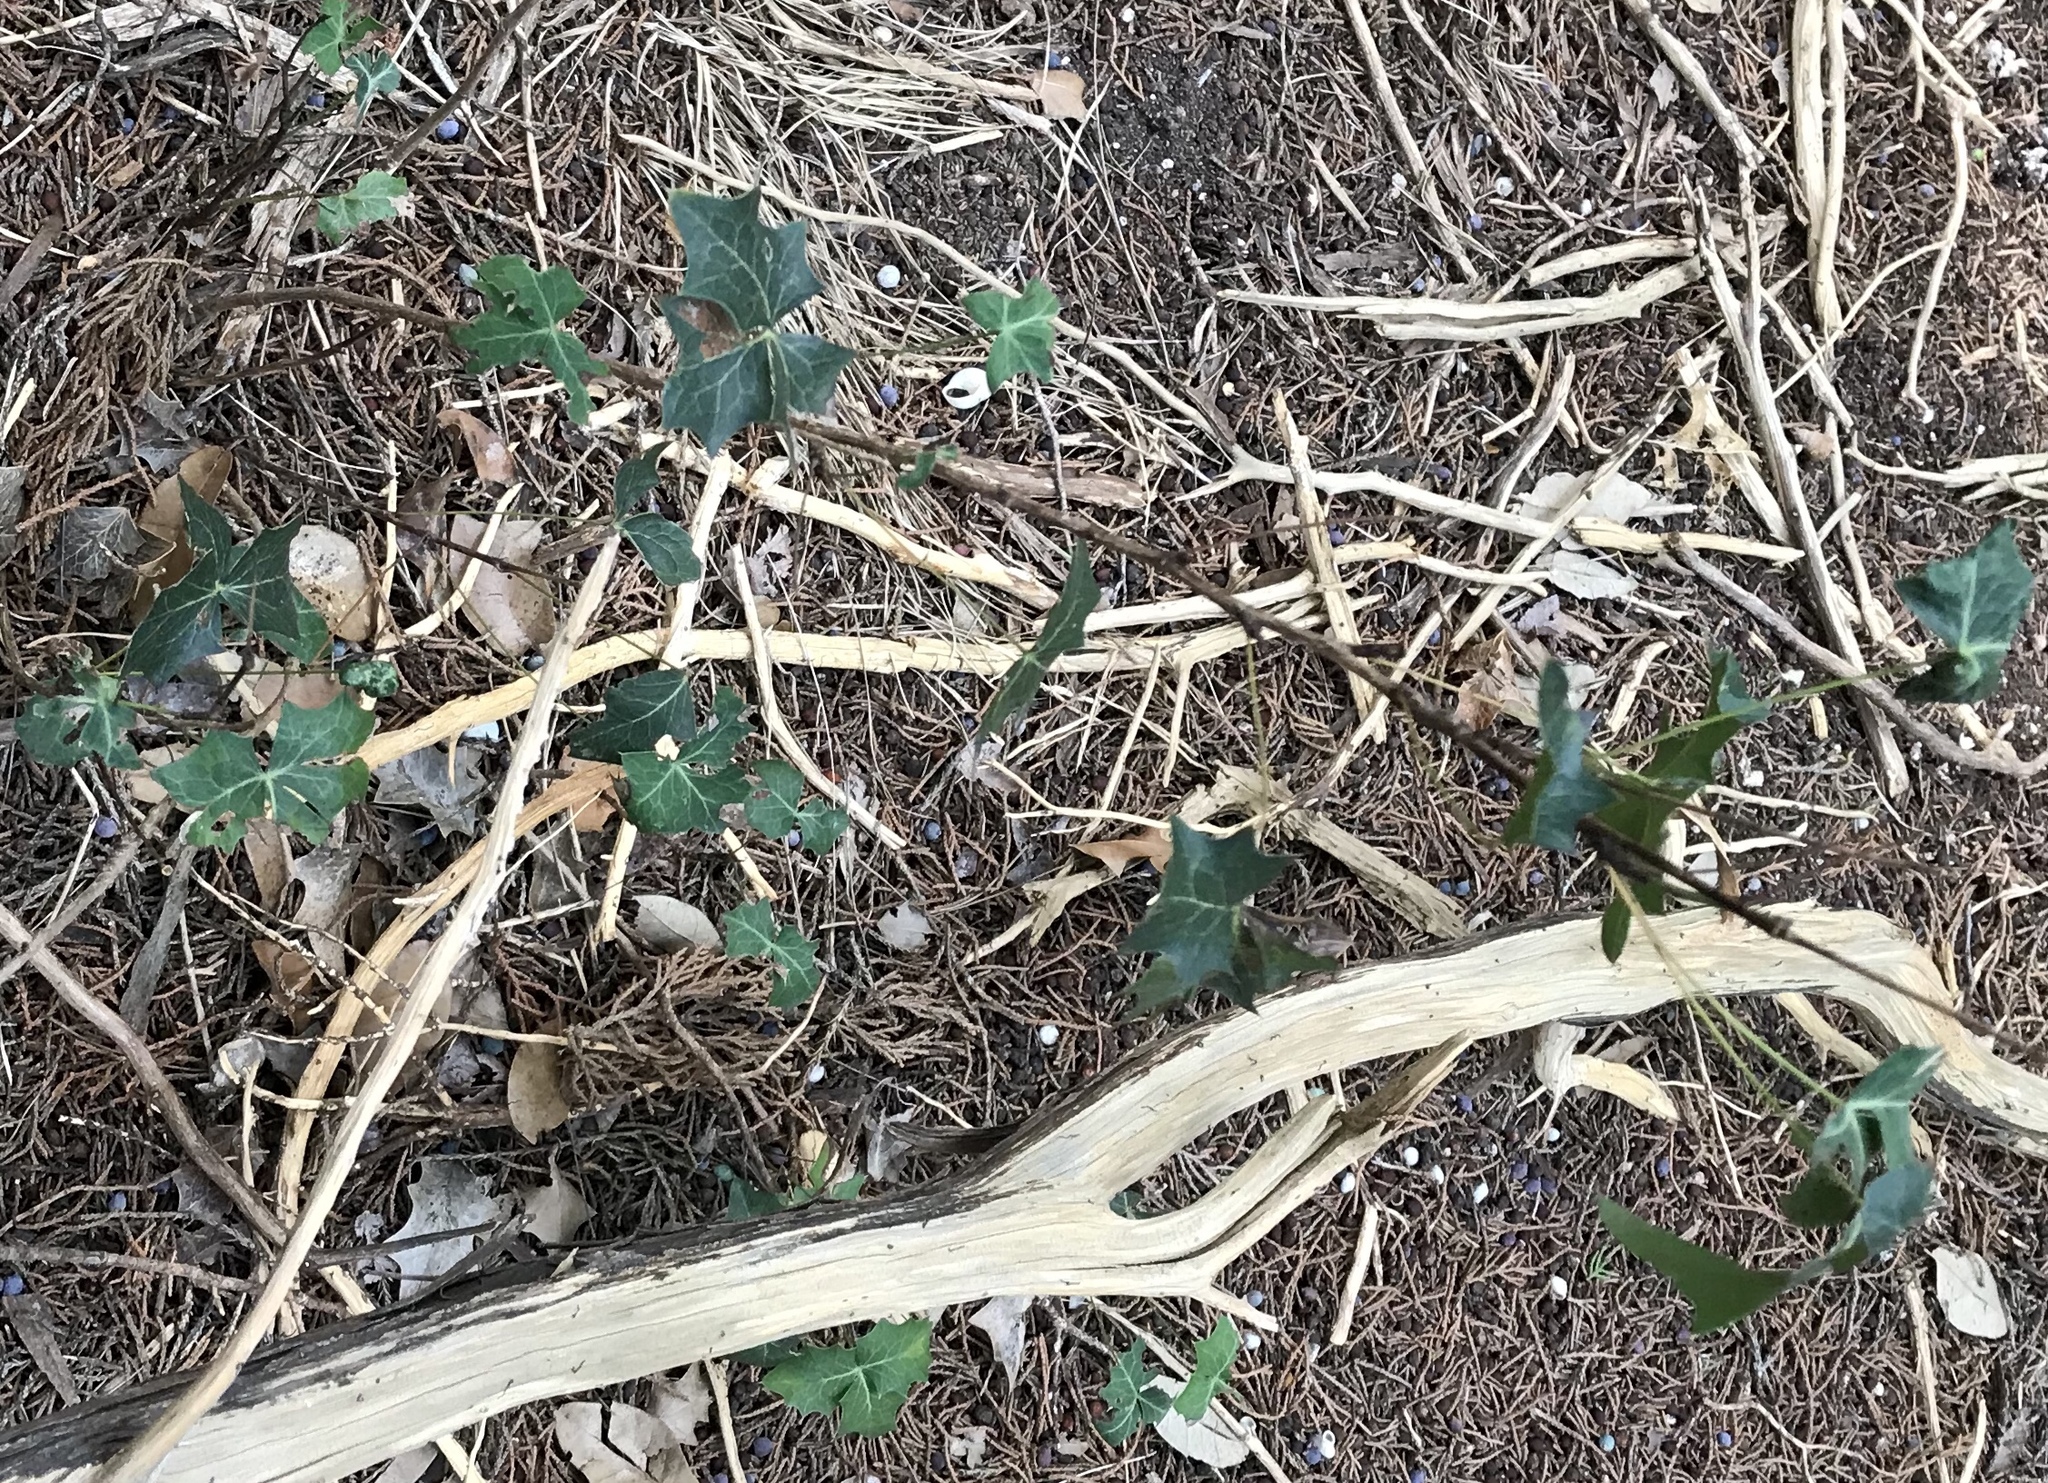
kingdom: Plantae
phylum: Tracheophyta
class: Magnoliopsida
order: Ranunculales
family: Berberidaceae
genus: Alloberberis
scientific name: Alloberberis trifoliolata
